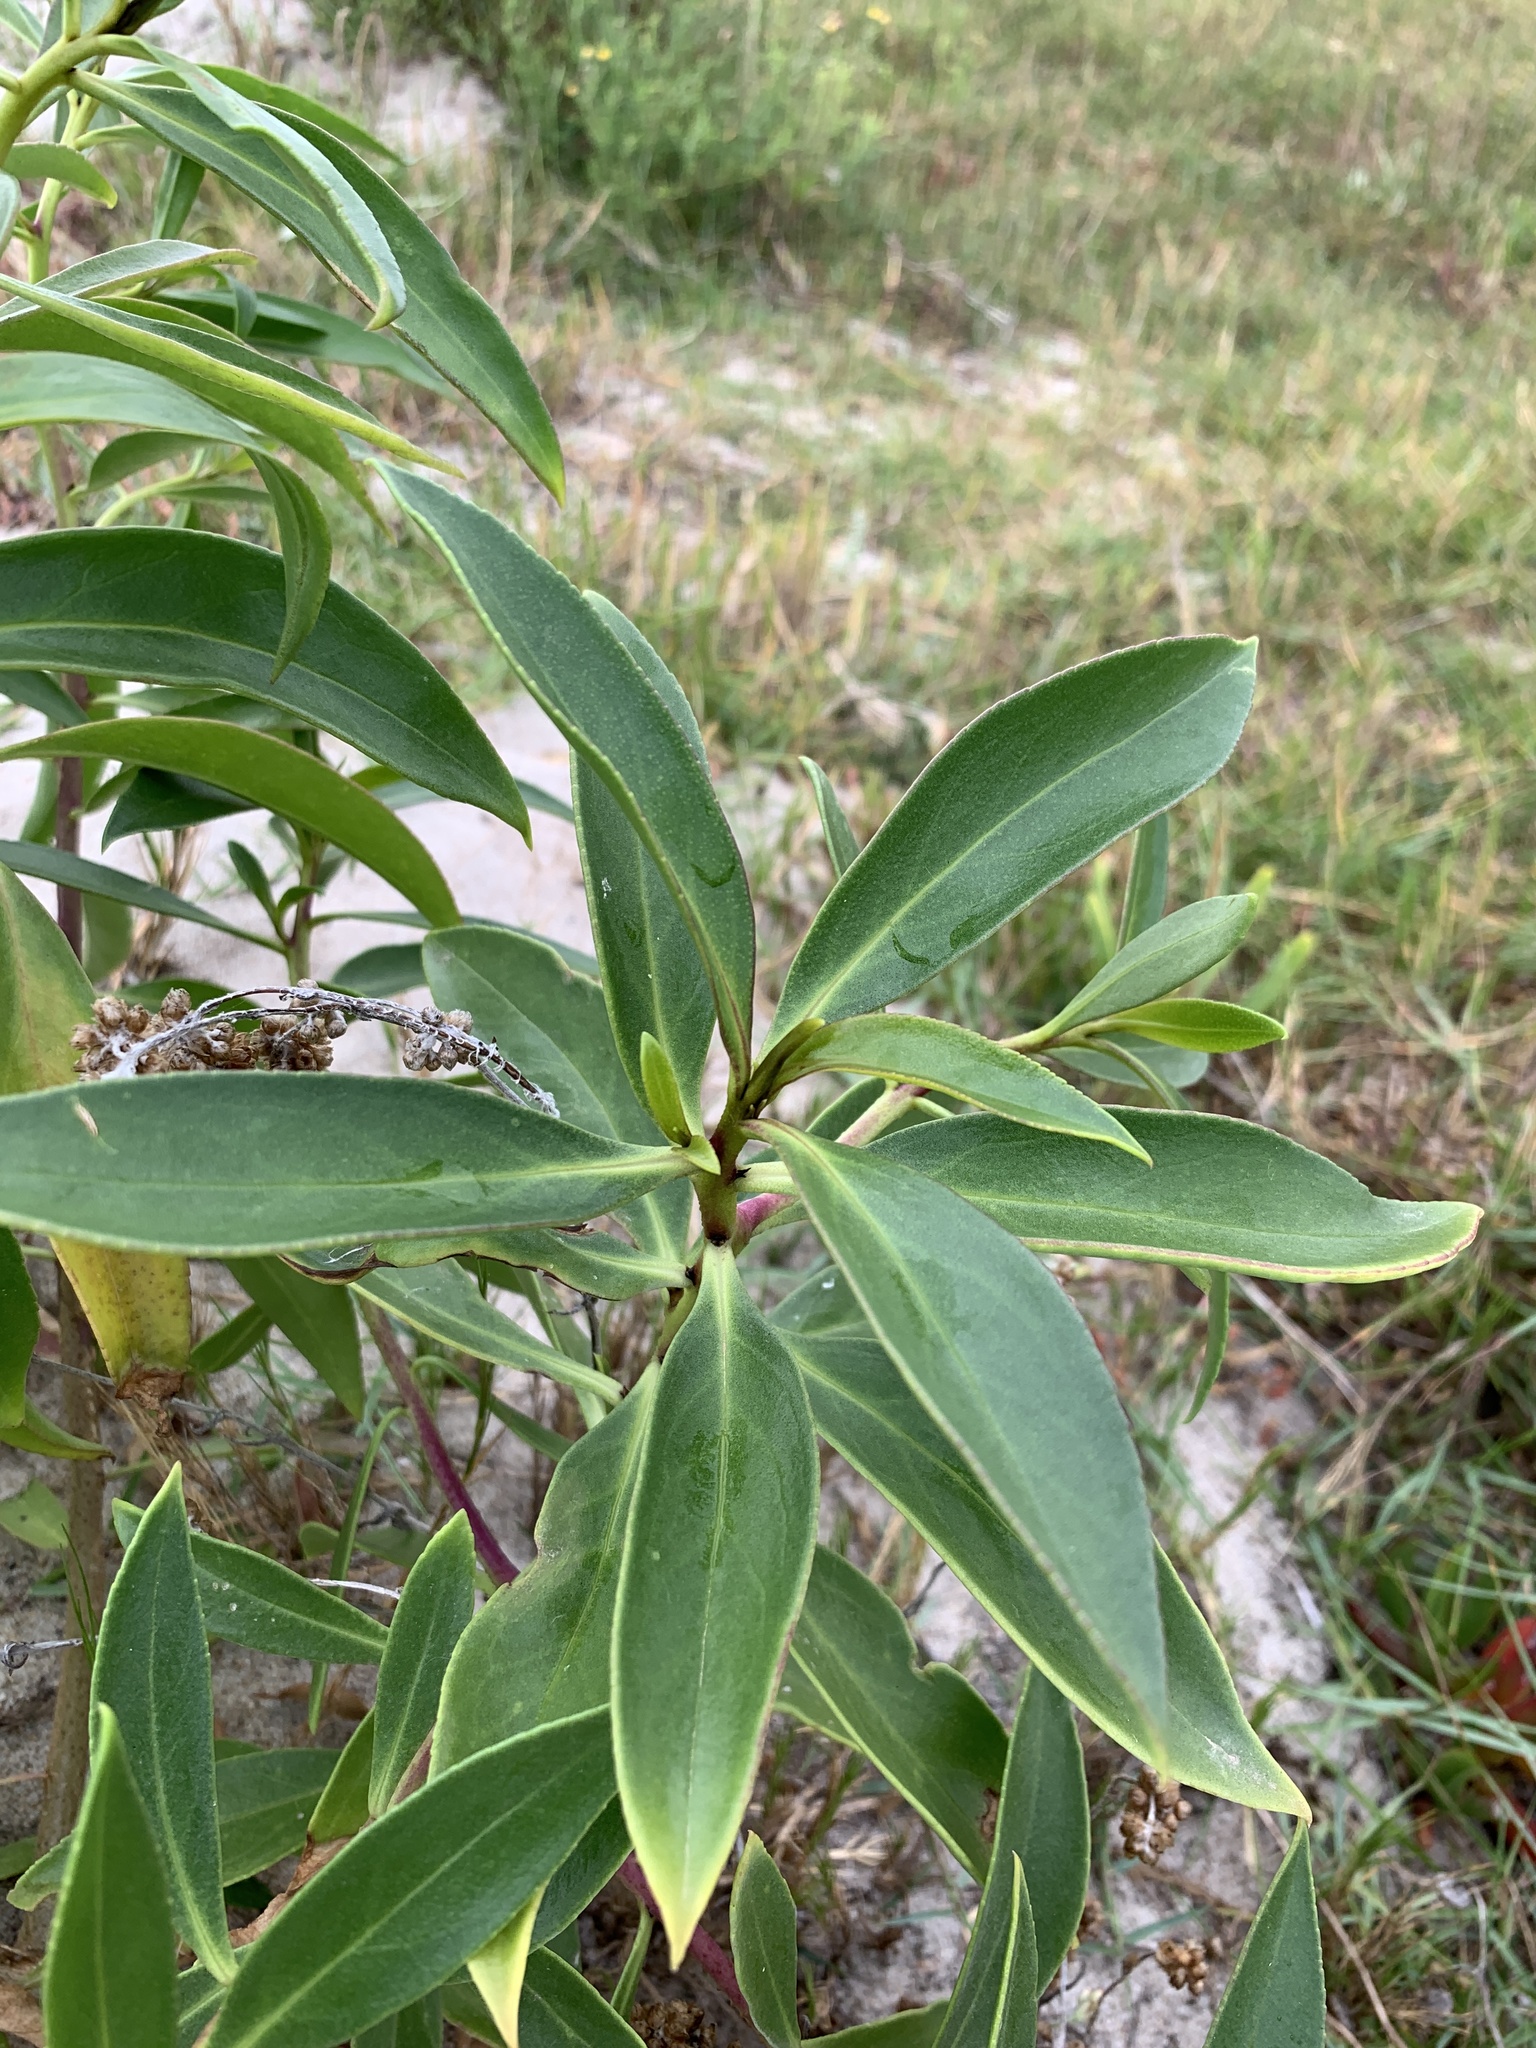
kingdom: Plantae
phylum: Tracheophyta
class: Magnoliopsida
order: Lamiales
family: Scrophulariaceae
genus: Myoporum
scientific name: Myoporum insulare
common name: Common boobialla
